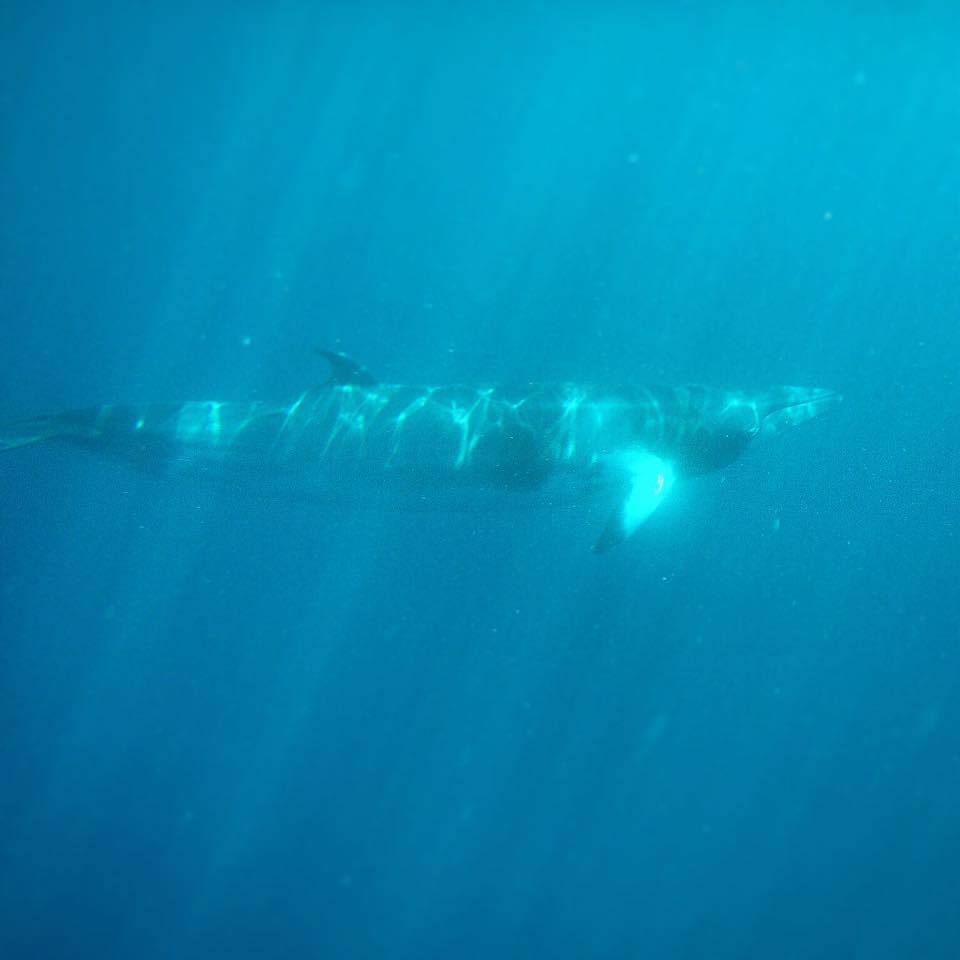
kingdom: Animalia
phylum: Chordata
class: Mammalia
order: Cetacea
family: Balaenopteridae
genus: Balaenoptera
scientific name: Balaenoptera acutorostrata
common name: Common minke whale
